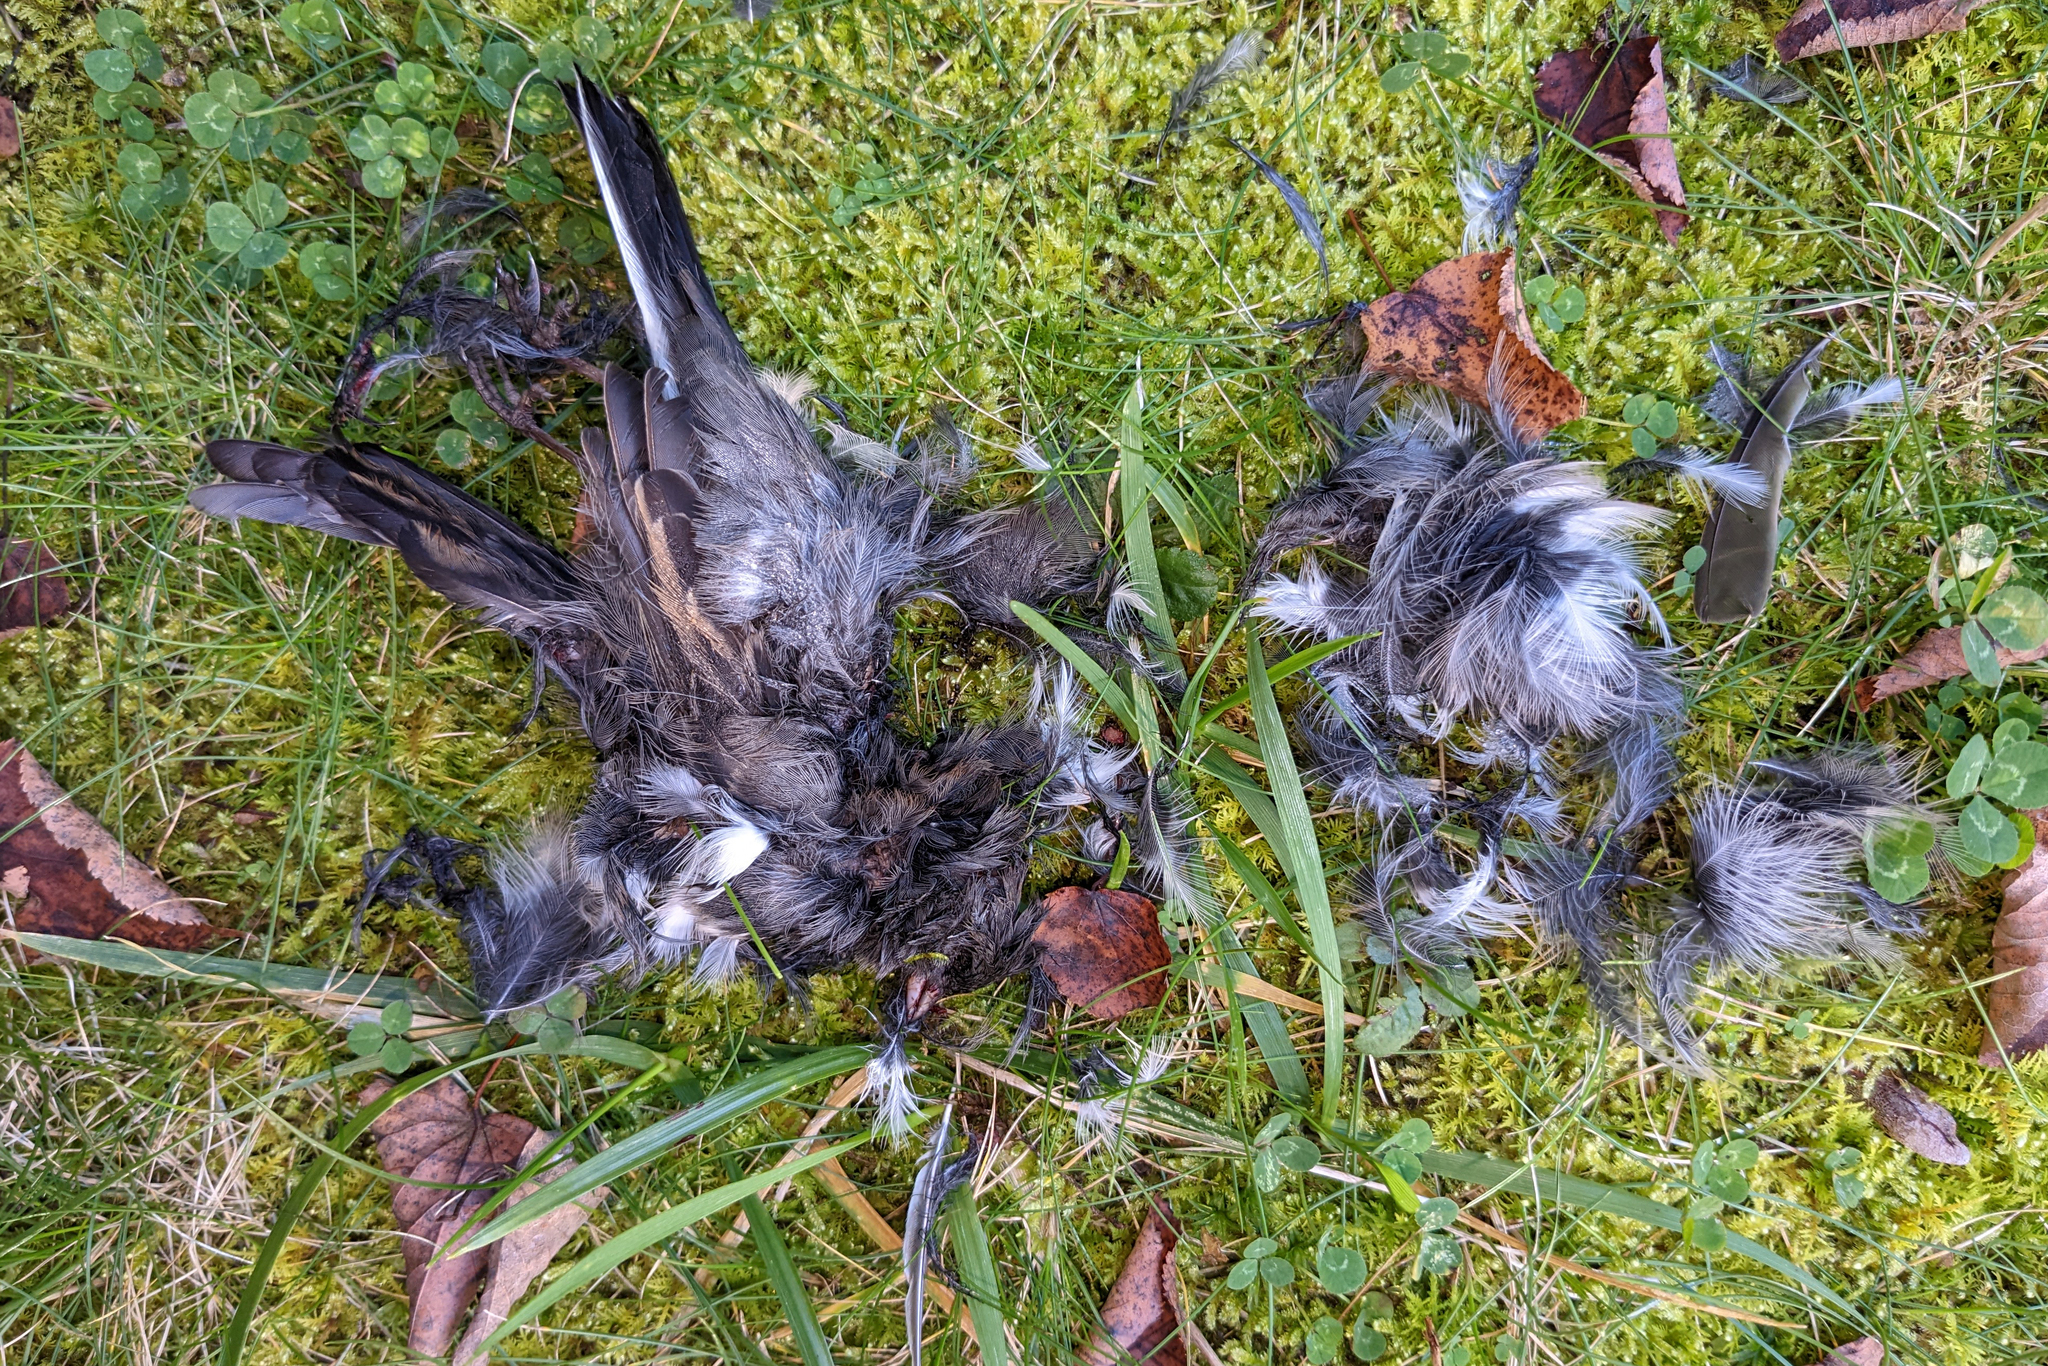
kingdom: Animalia
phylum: Chordata
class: Aves
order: Passeriformes
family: Passerellidae
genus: Junco
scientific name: Junco hyemalis
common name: Dark-eyed junco
